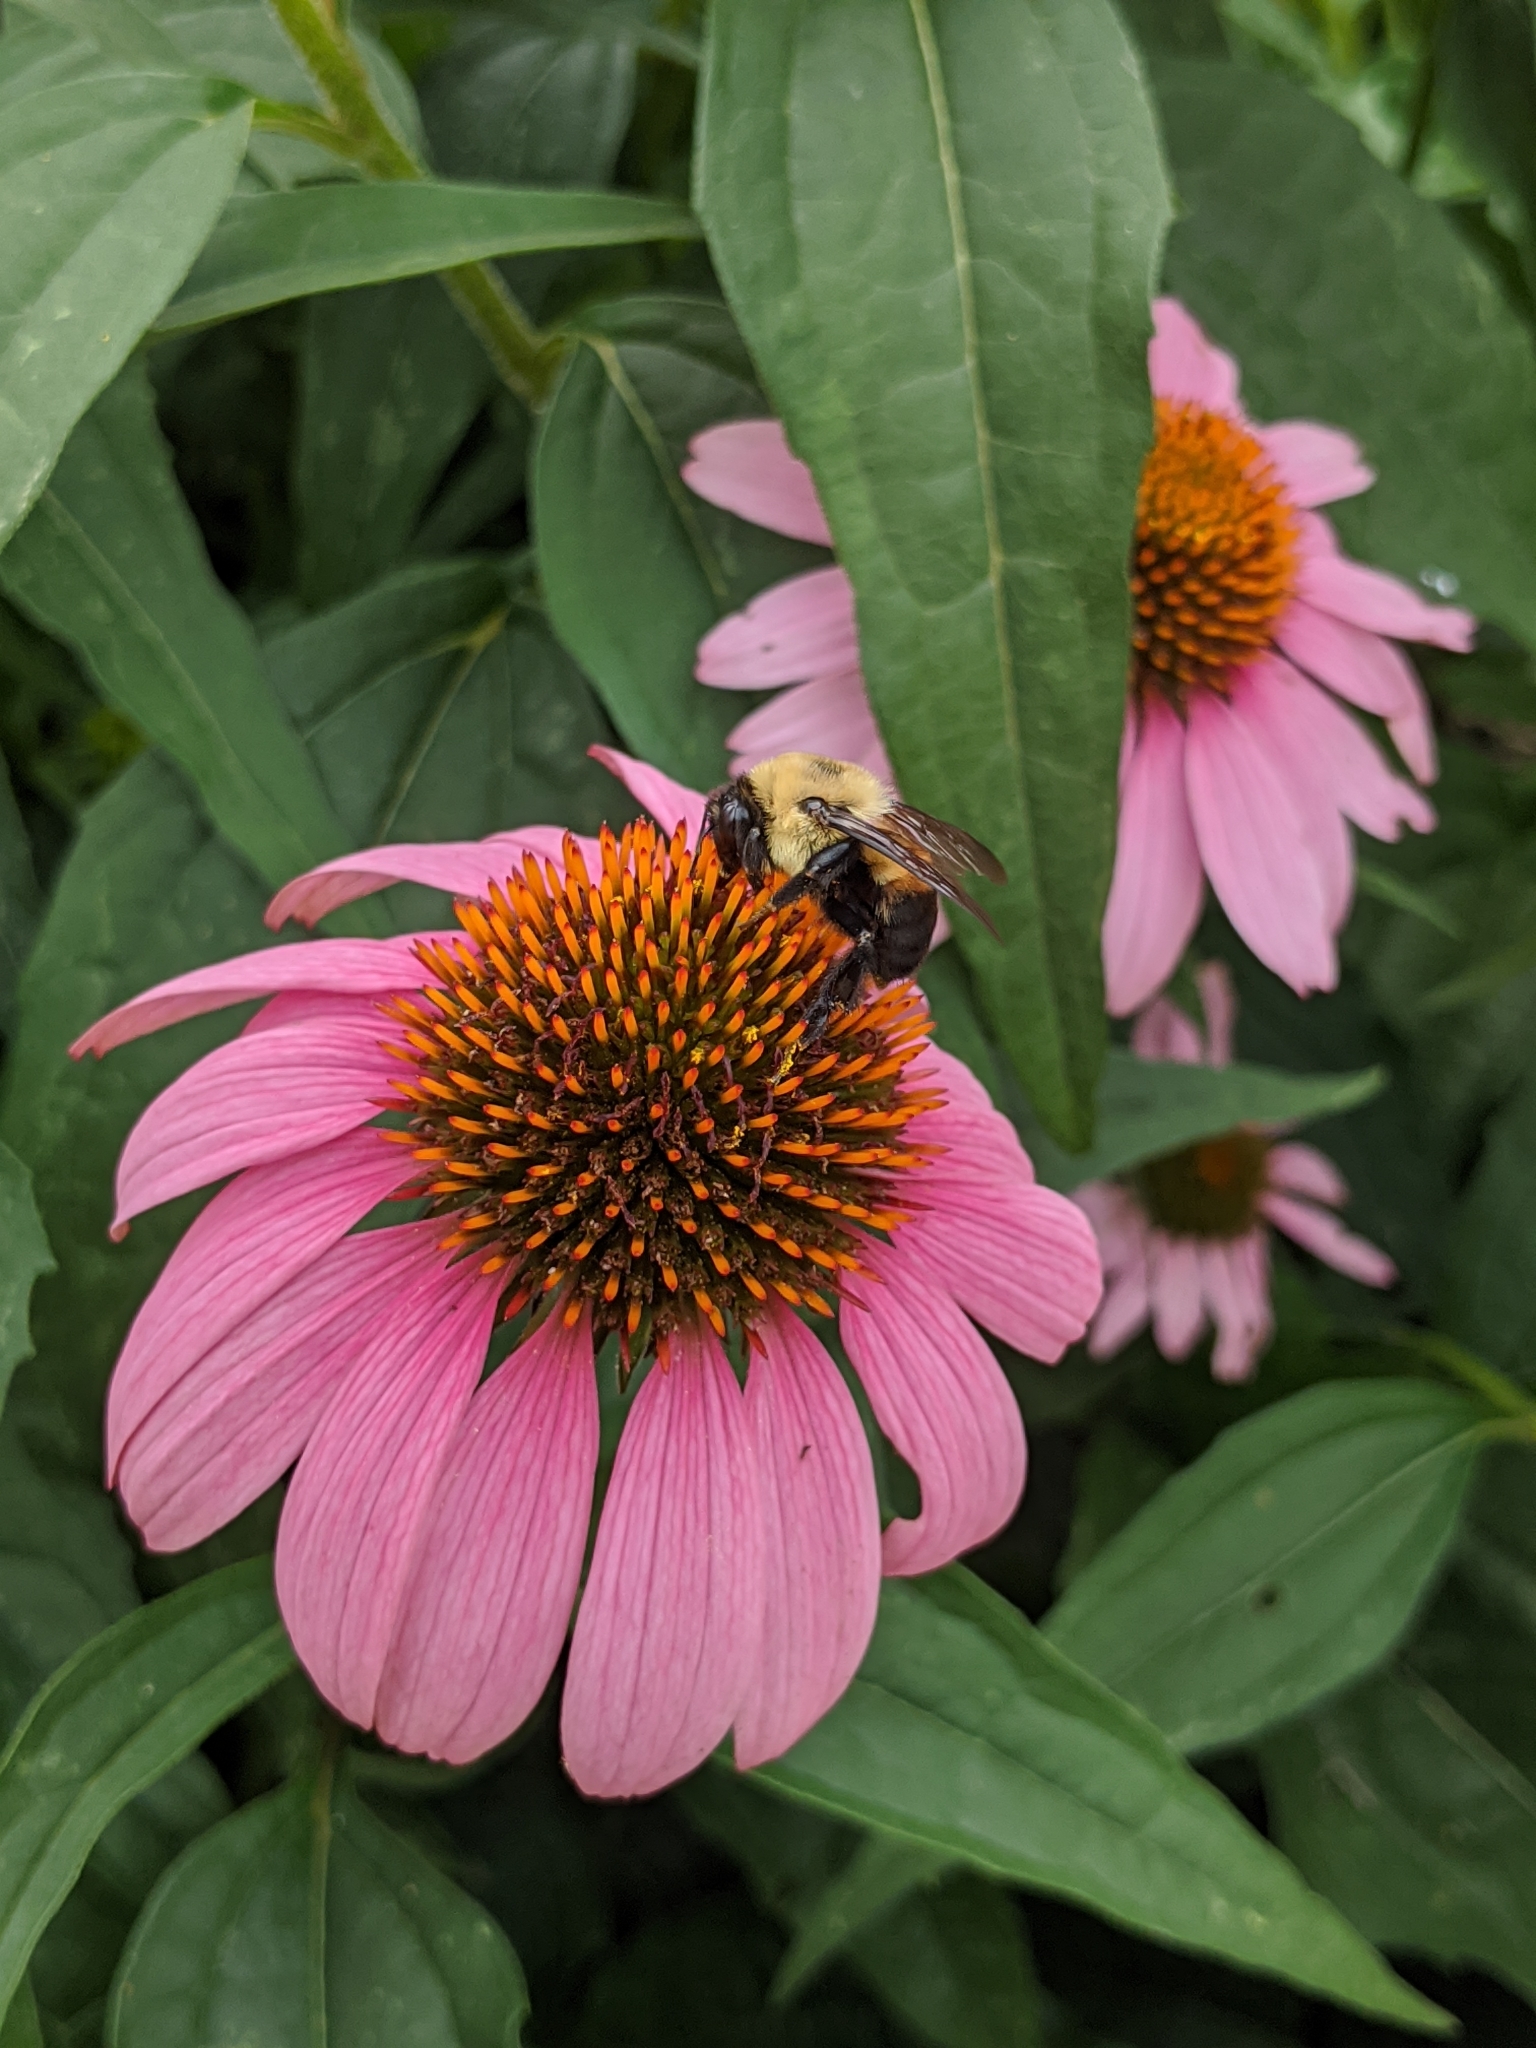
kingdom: Animalia
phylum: Arthropoda
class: Insecta
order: Hymenoptera
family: Apidae
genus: Bombus
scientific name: Bombus griseocollis
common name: Brown-belted bumble bee
